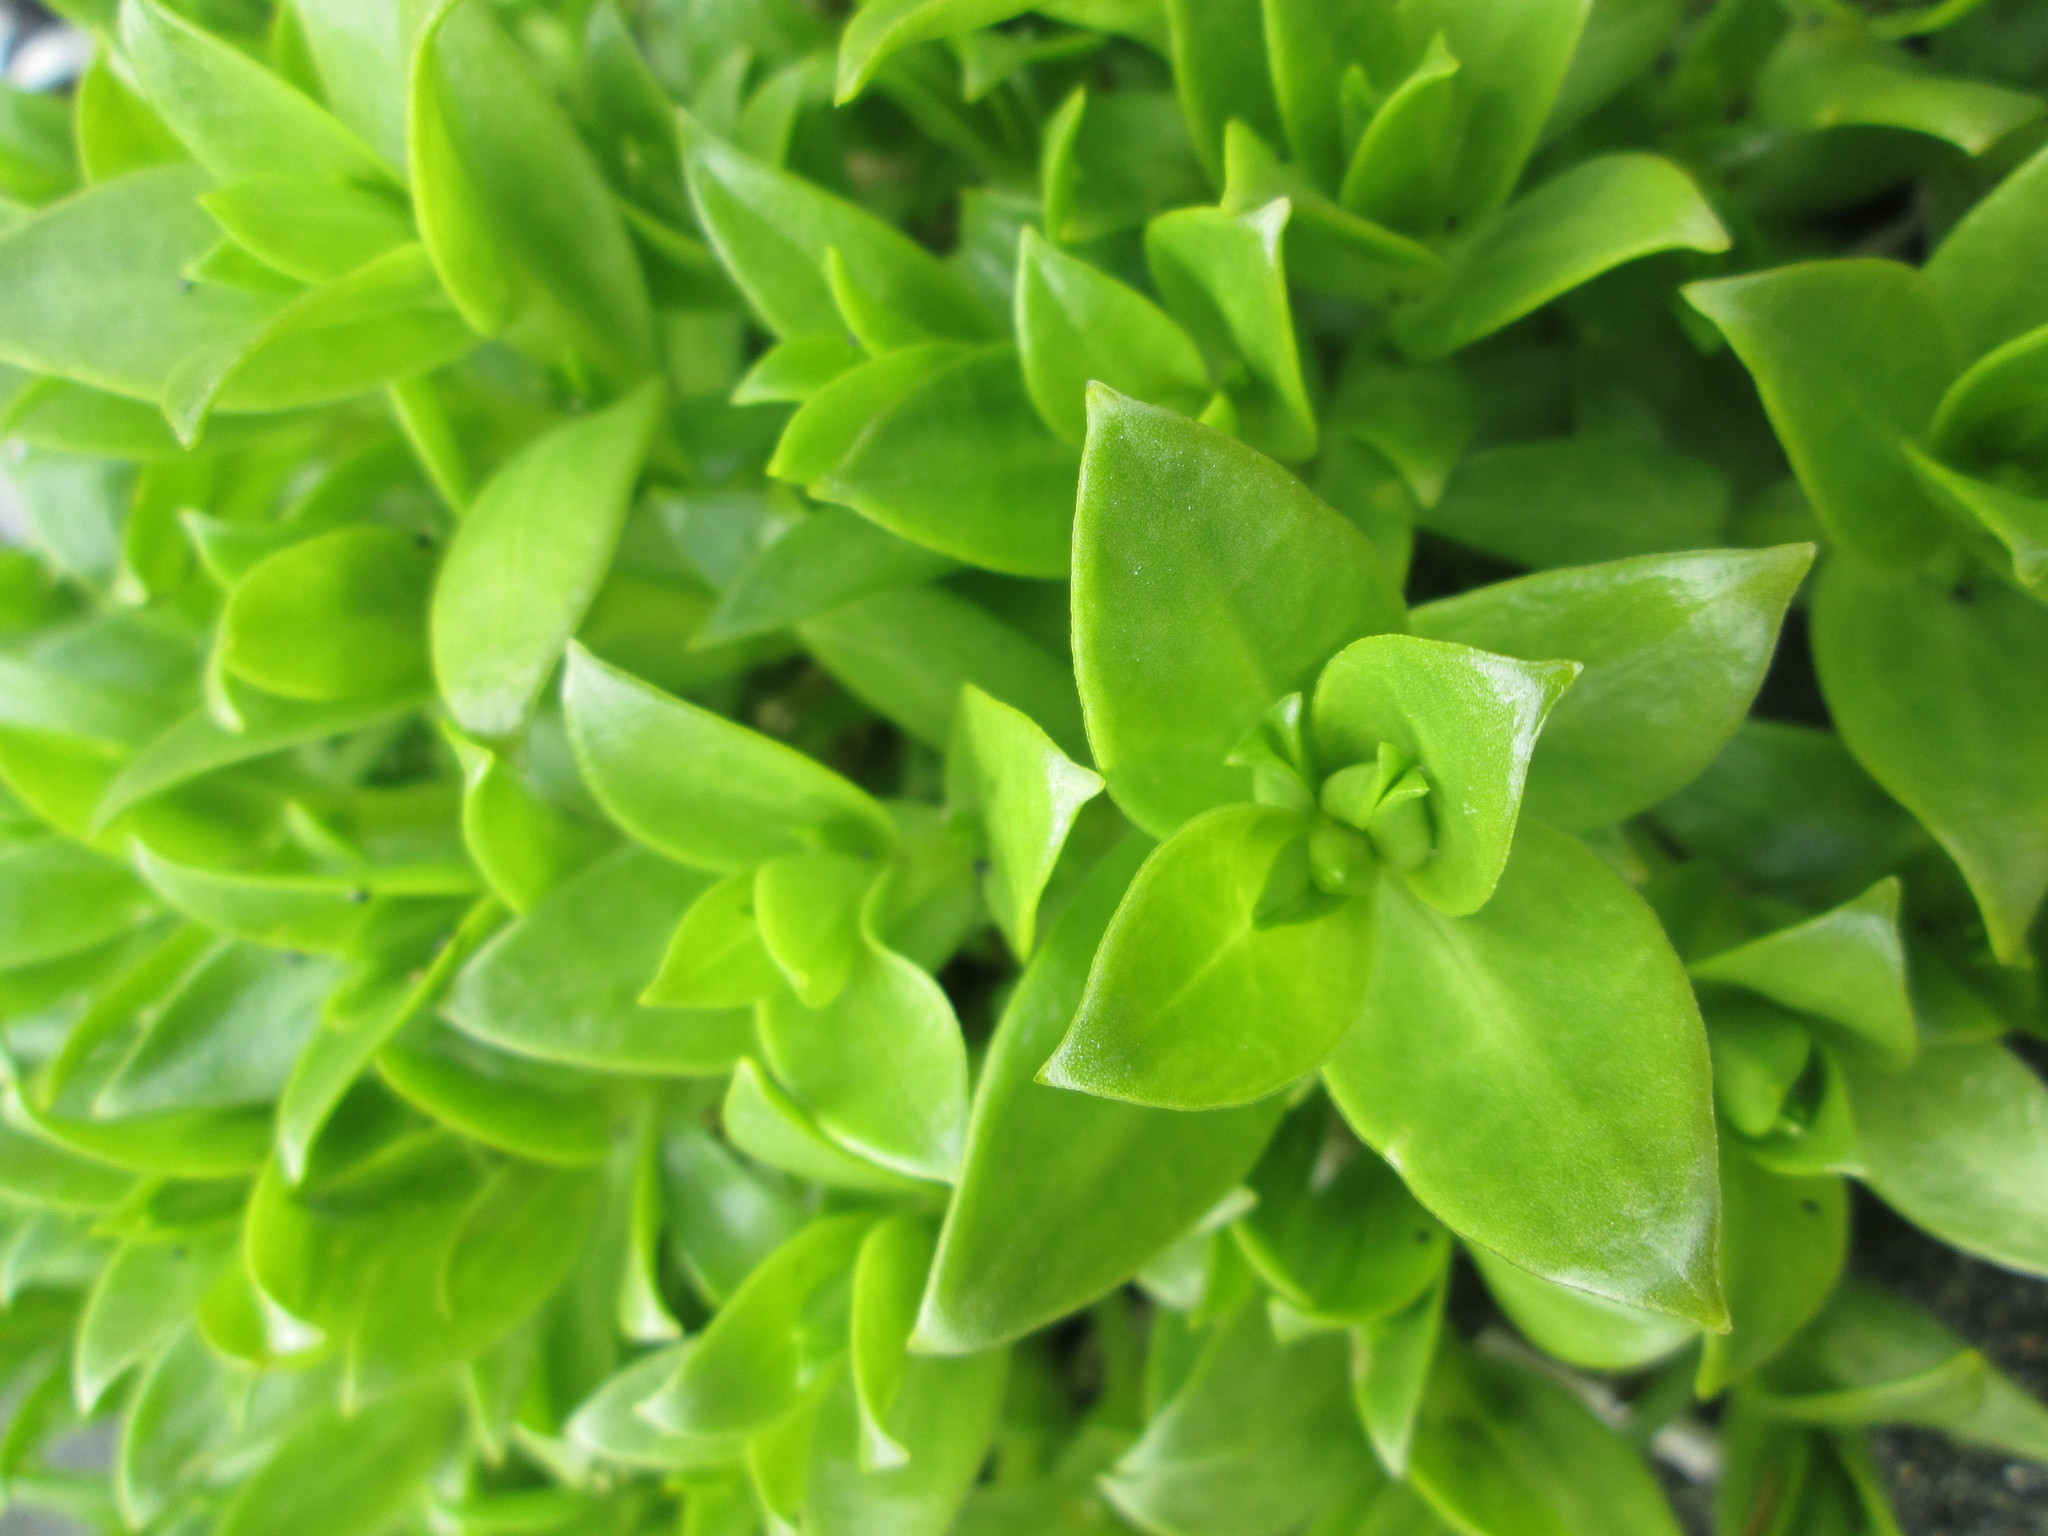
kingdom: Plantae
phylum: Tracheophyta
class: Magnoliopsida
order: Caryophyllales
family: Caryophyllaceae
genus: Honckenya
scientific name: Honckenya peploides
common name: Sea sandwort
